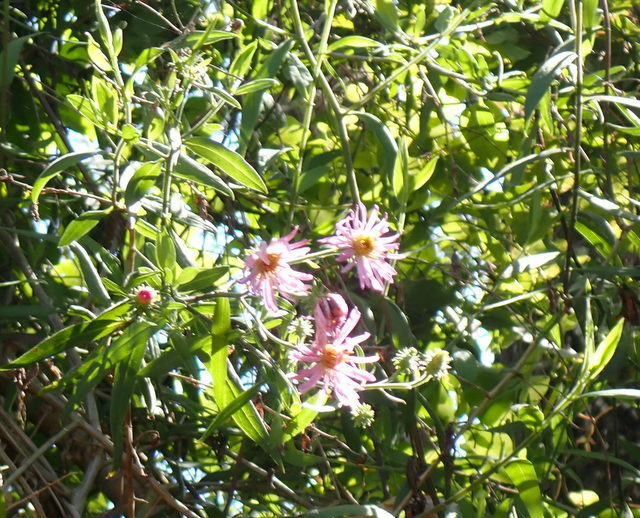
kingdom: Plantae
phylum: Tracheophyta
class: Magnoliopsida
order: Asterales
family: Asteraceae
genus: Ampelaster
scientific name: Ampelaster carolinianus
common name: Climbing aster
